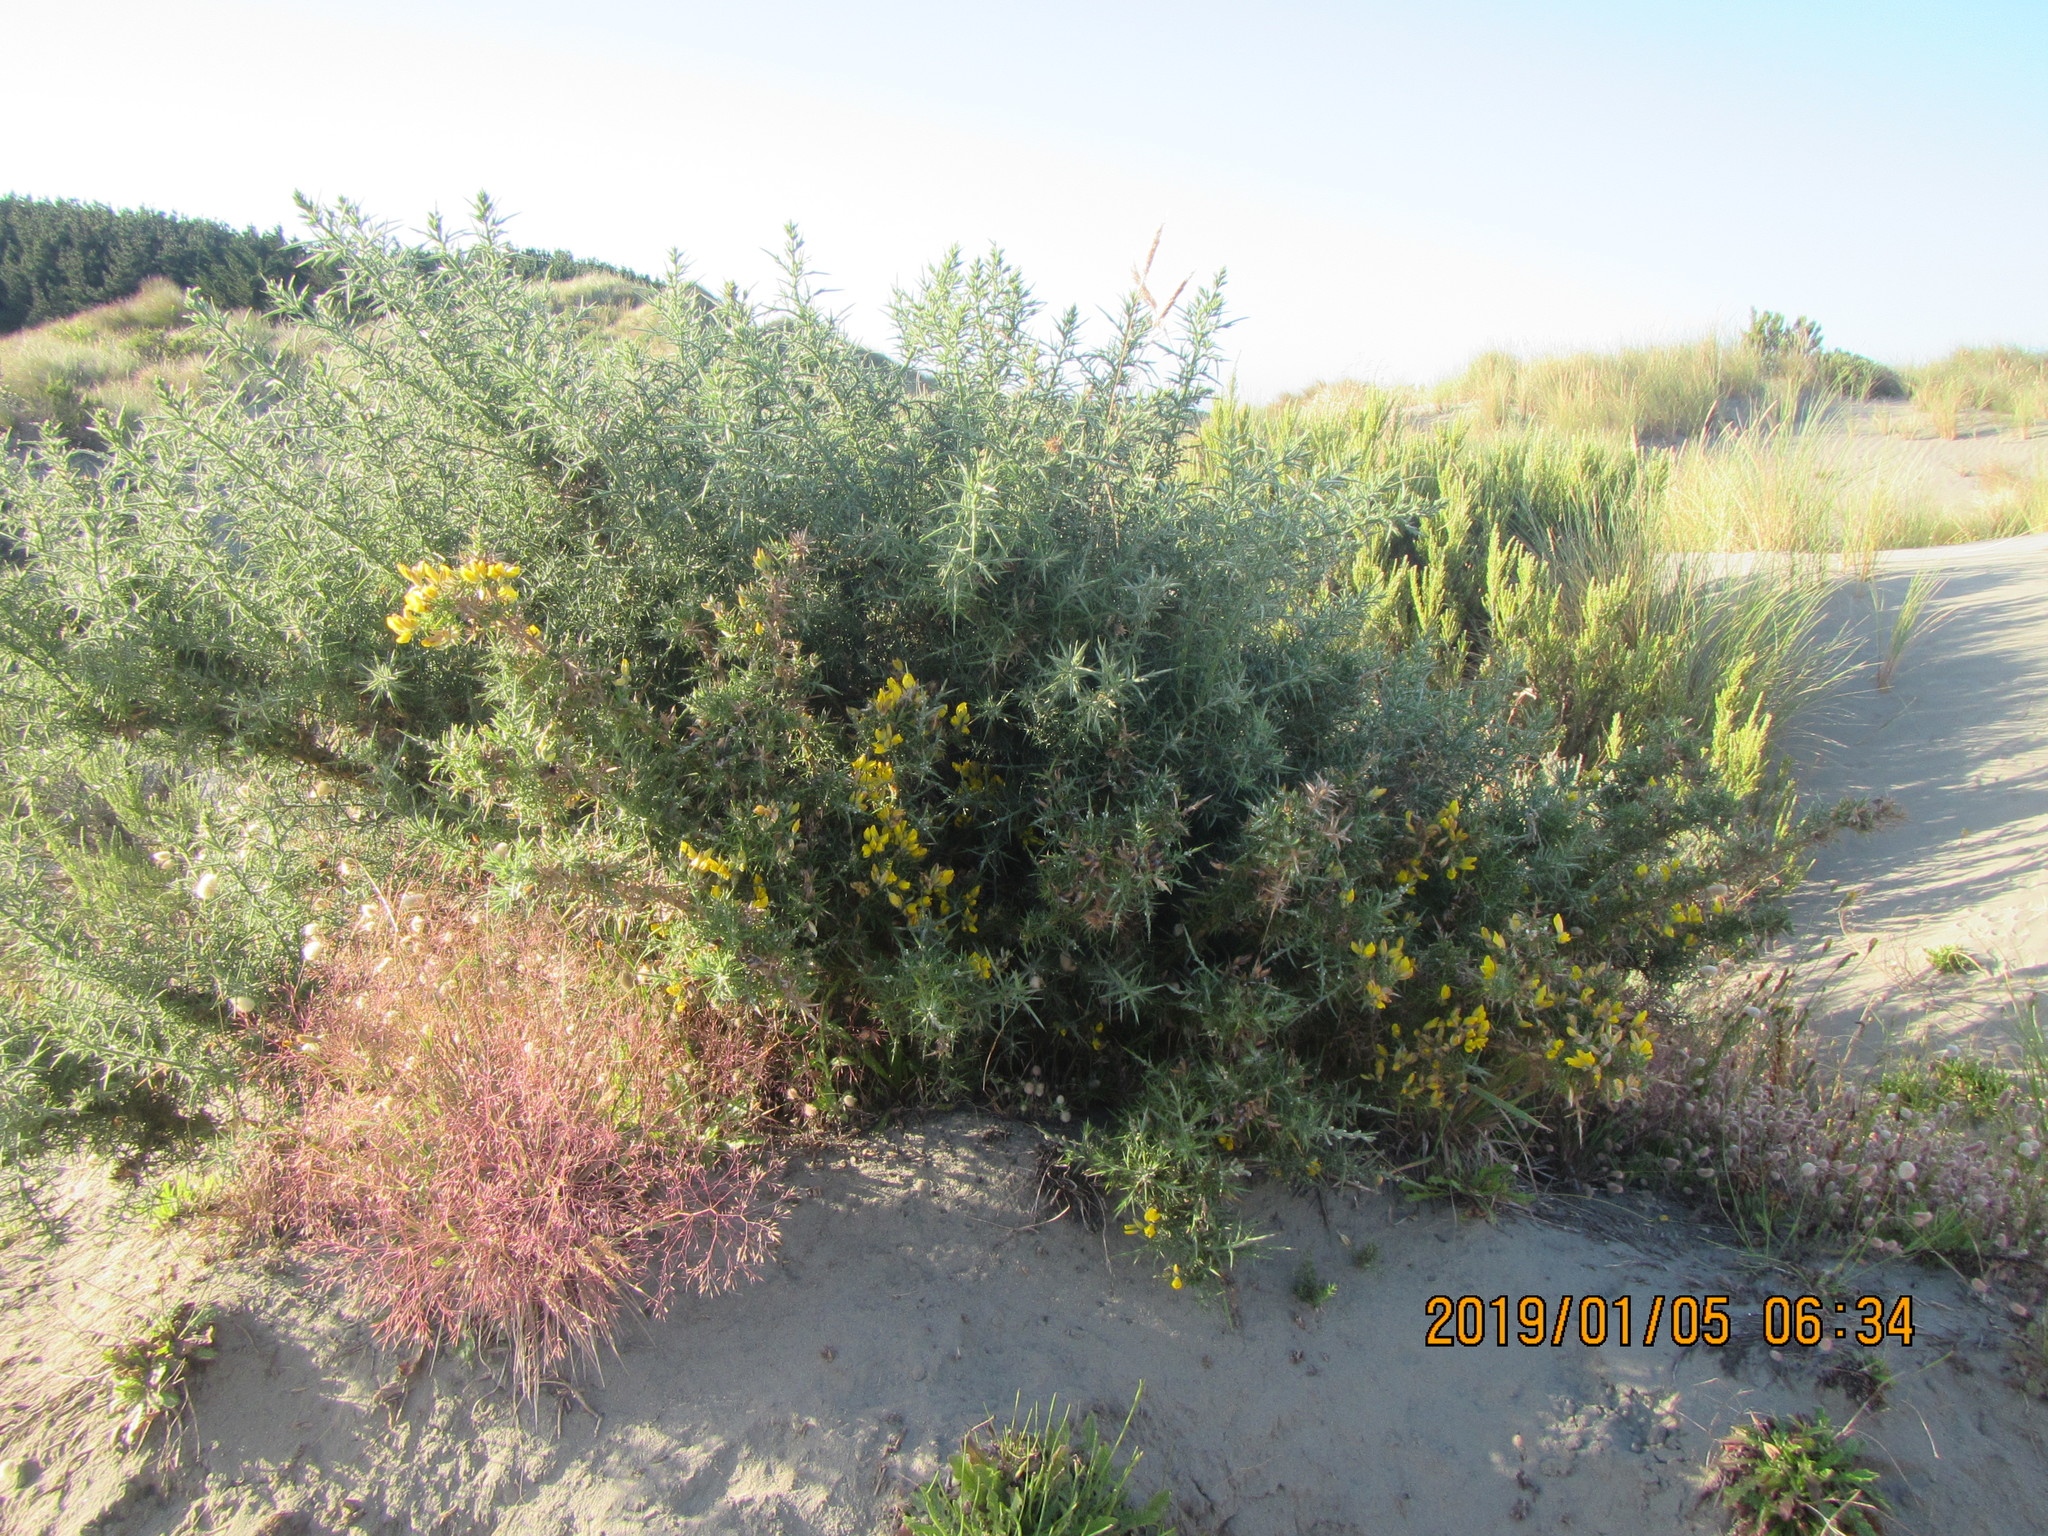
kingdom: Plantae
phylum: Tracheophyta
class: Magnoliopsida
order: Fabales
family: Fabaceae
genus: Ulex
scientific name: Ulex europaeus
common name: Common gorse
